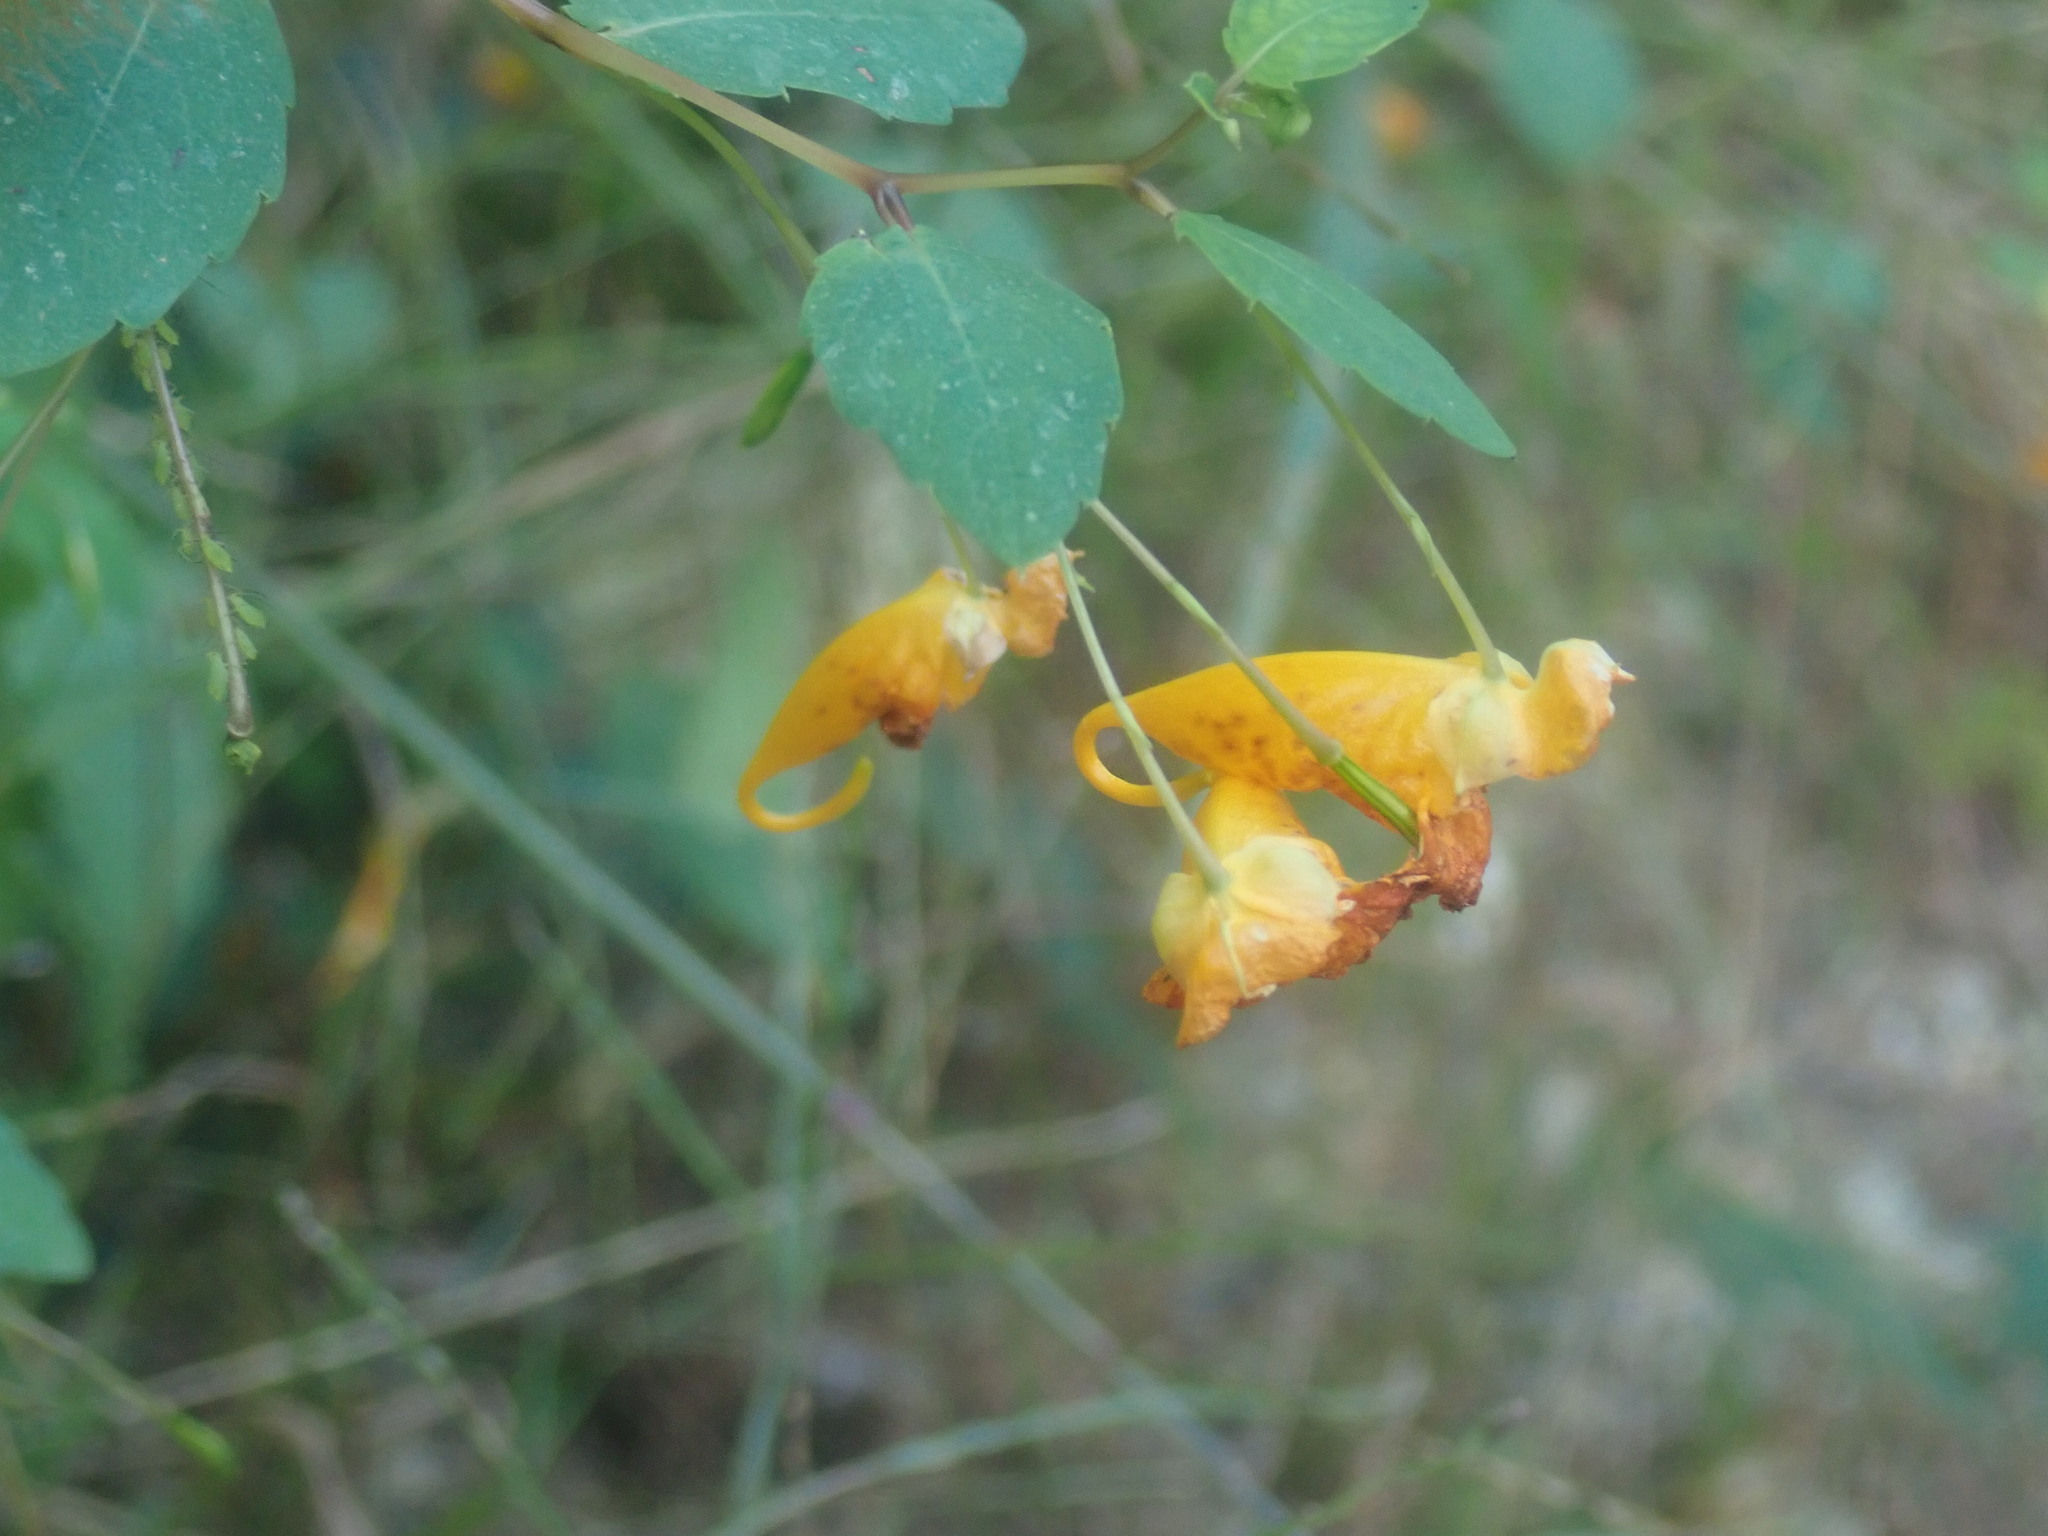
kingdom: Plantae
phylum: Tracheophyta
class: Magnoliopsida
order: Ericales
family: Balsaminaceae
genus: Impatiens
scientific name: Impatiens capensis
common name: Orange balsam
